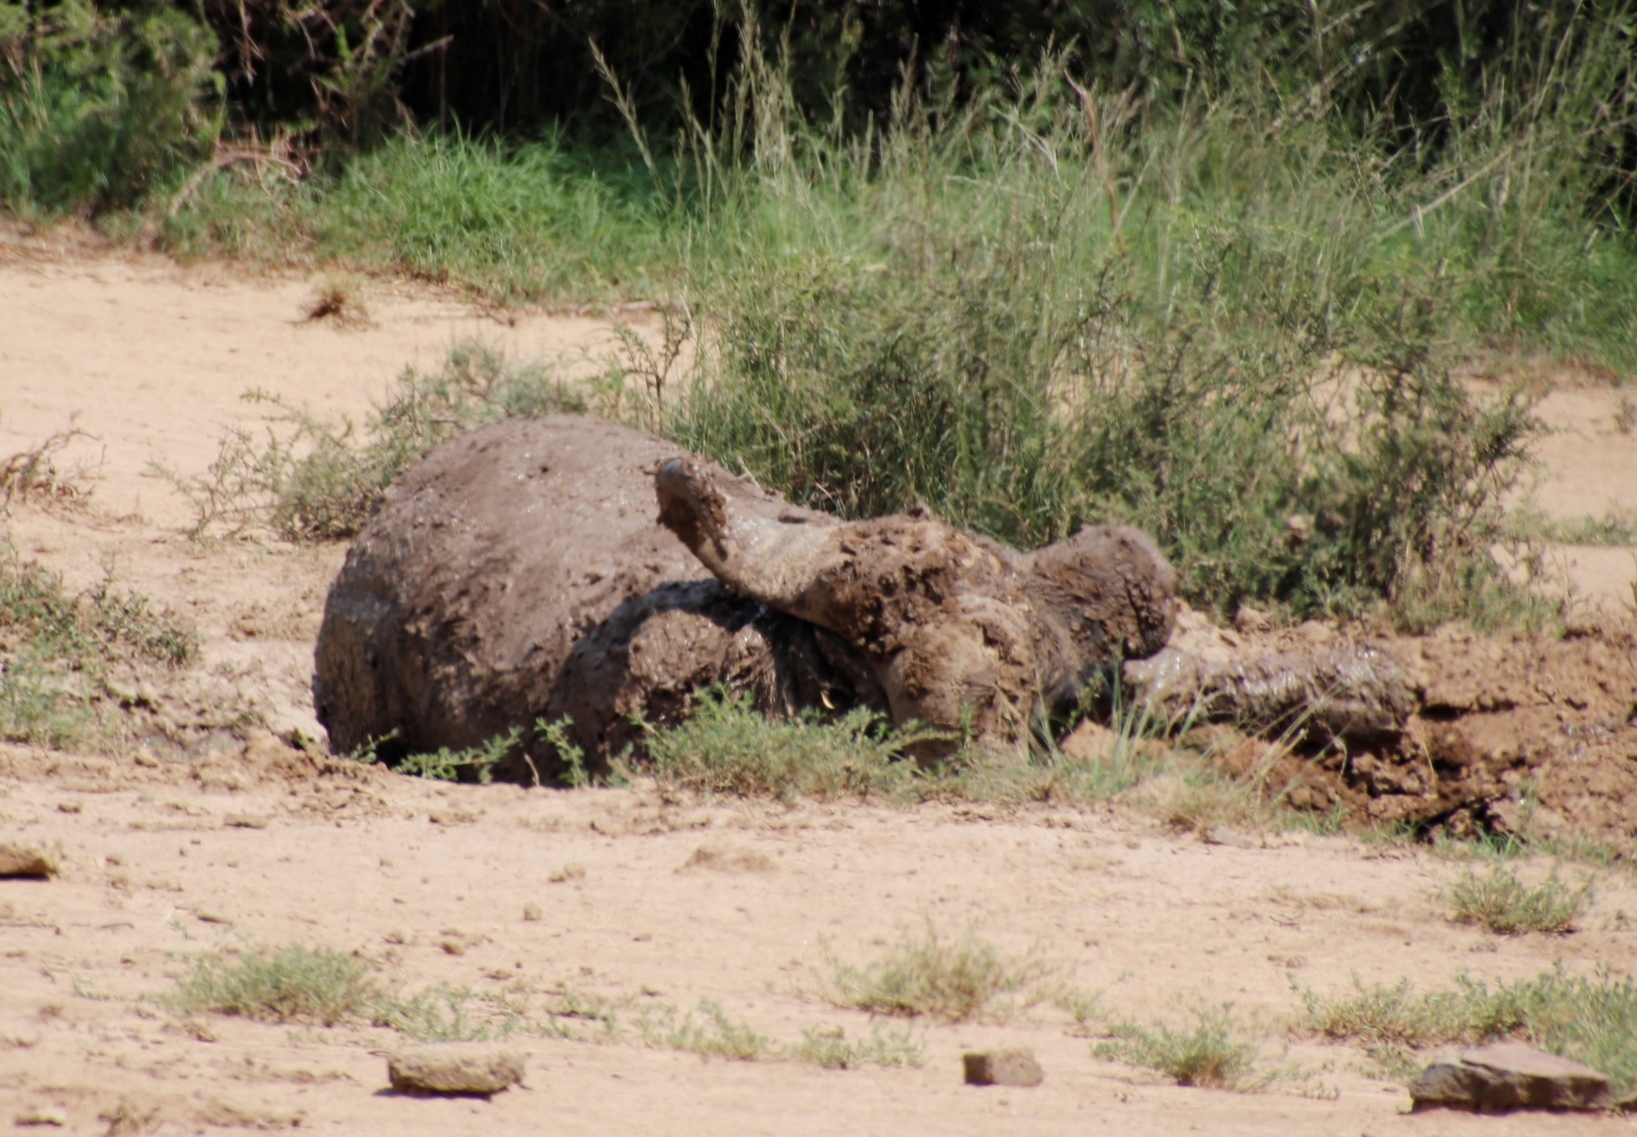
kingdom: Animalia
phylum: Chordata
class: Mammalia
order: Artiodactyla
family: Bovidae
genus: Syncerus
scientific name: Syncerus caffer
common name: African buffalo
